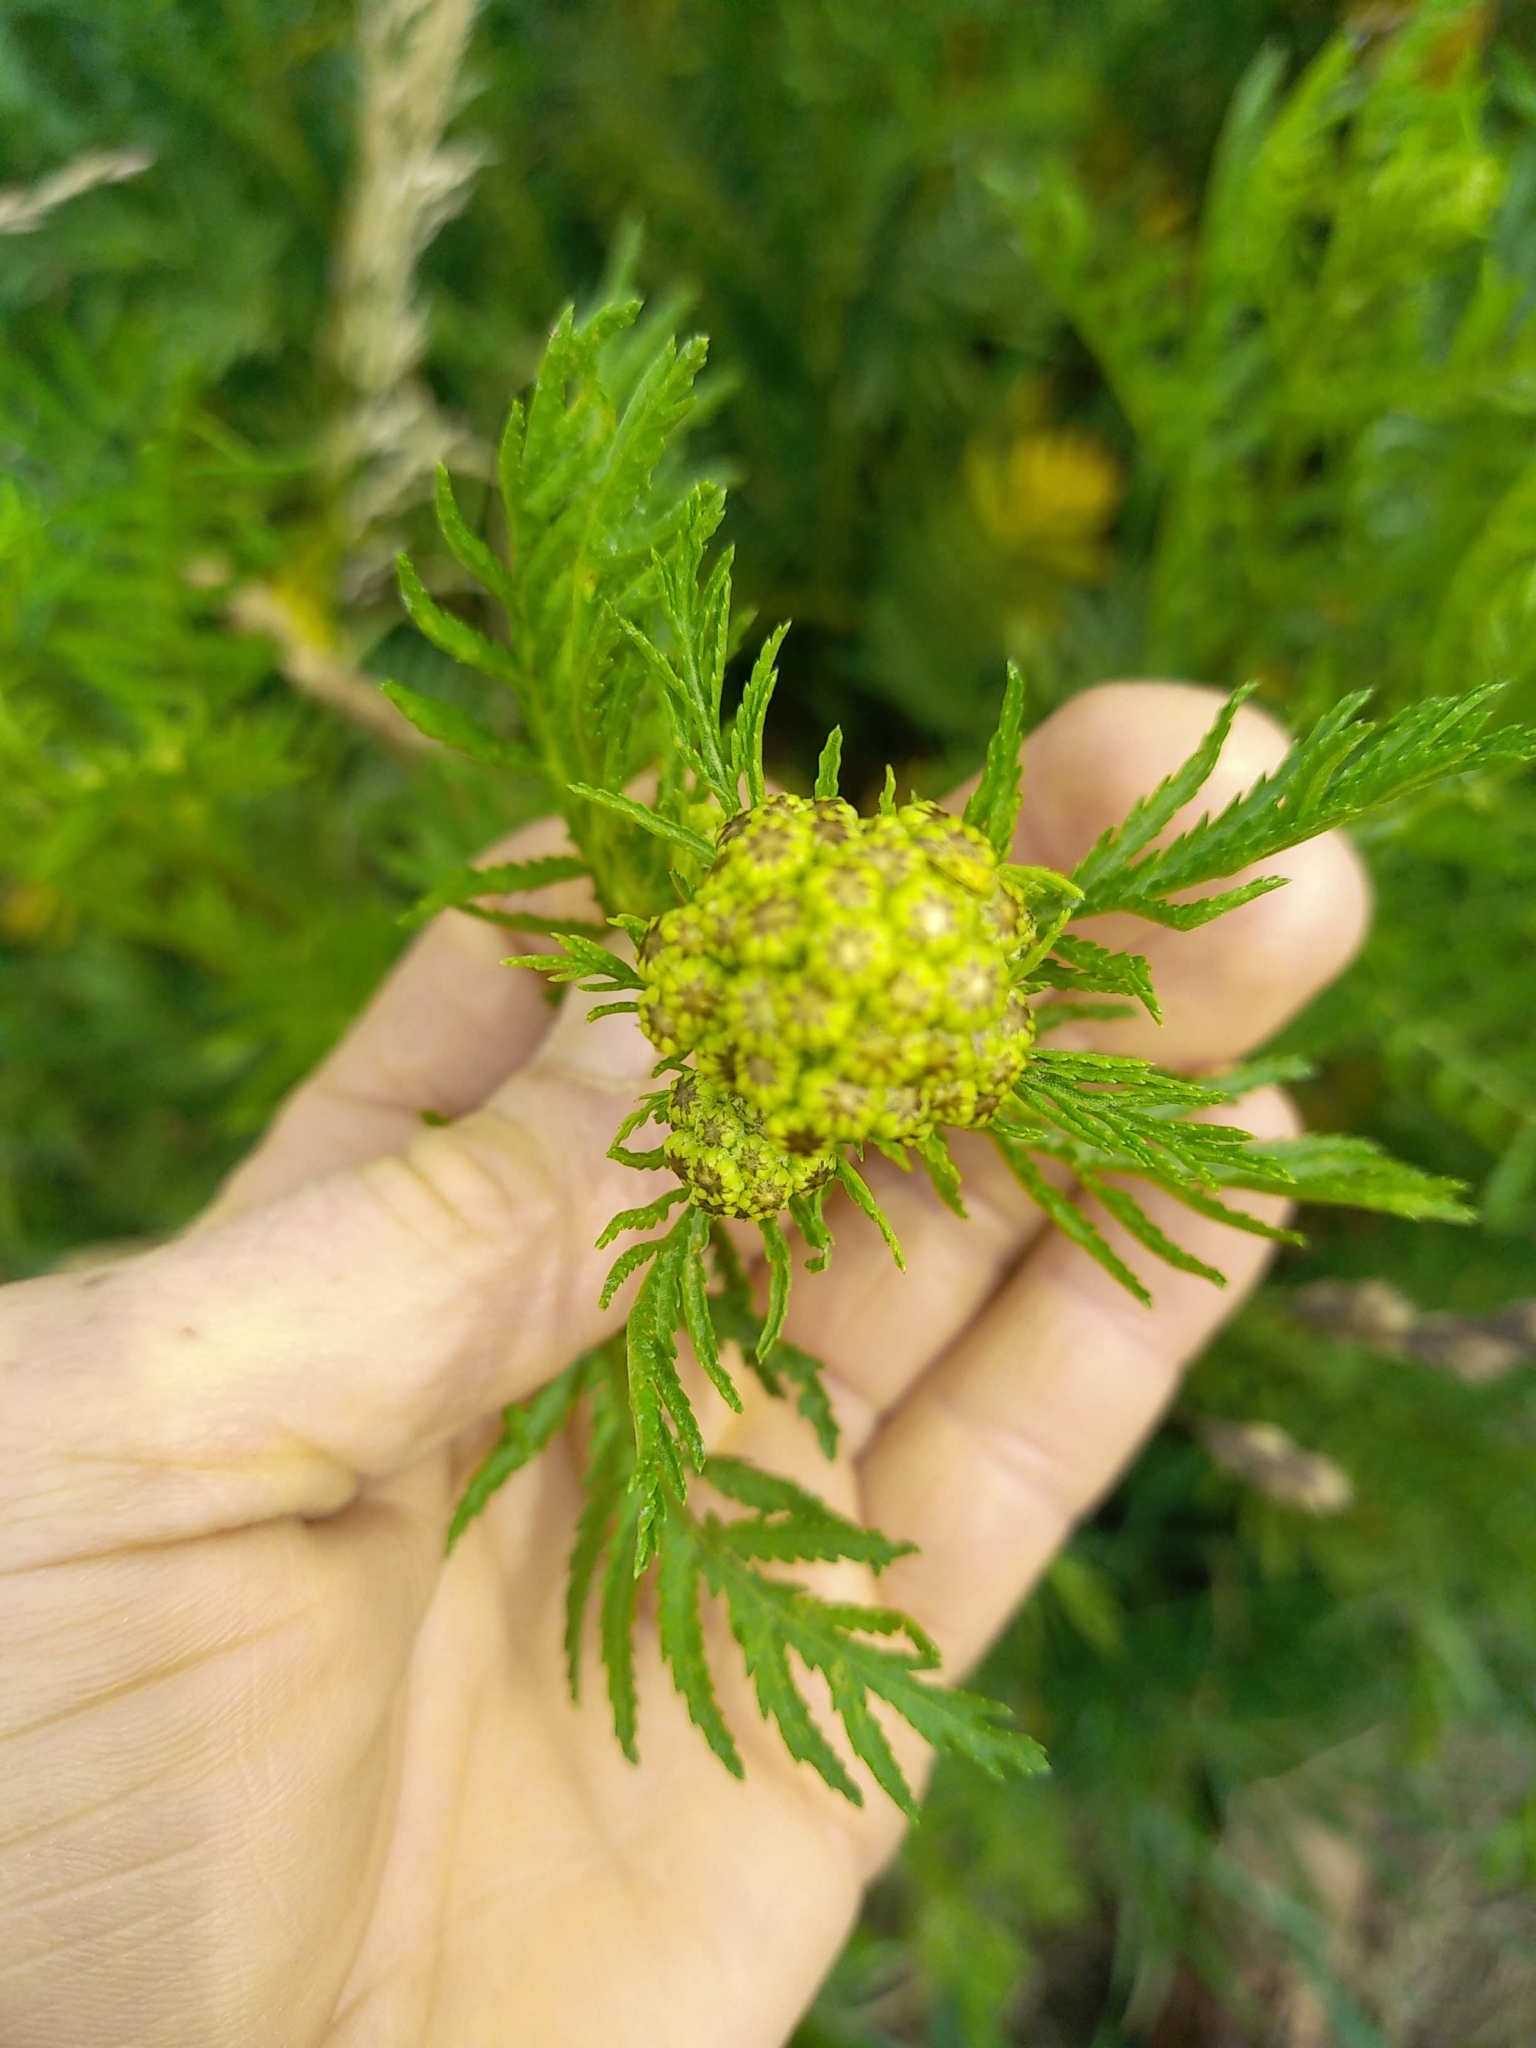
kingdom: Plantae
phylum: Tracheophyta
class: Magnoliopsida
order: Asterales
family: Asteraceae
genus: Tanacetum
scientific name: Tanacetum vulgare
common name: Common tansy
